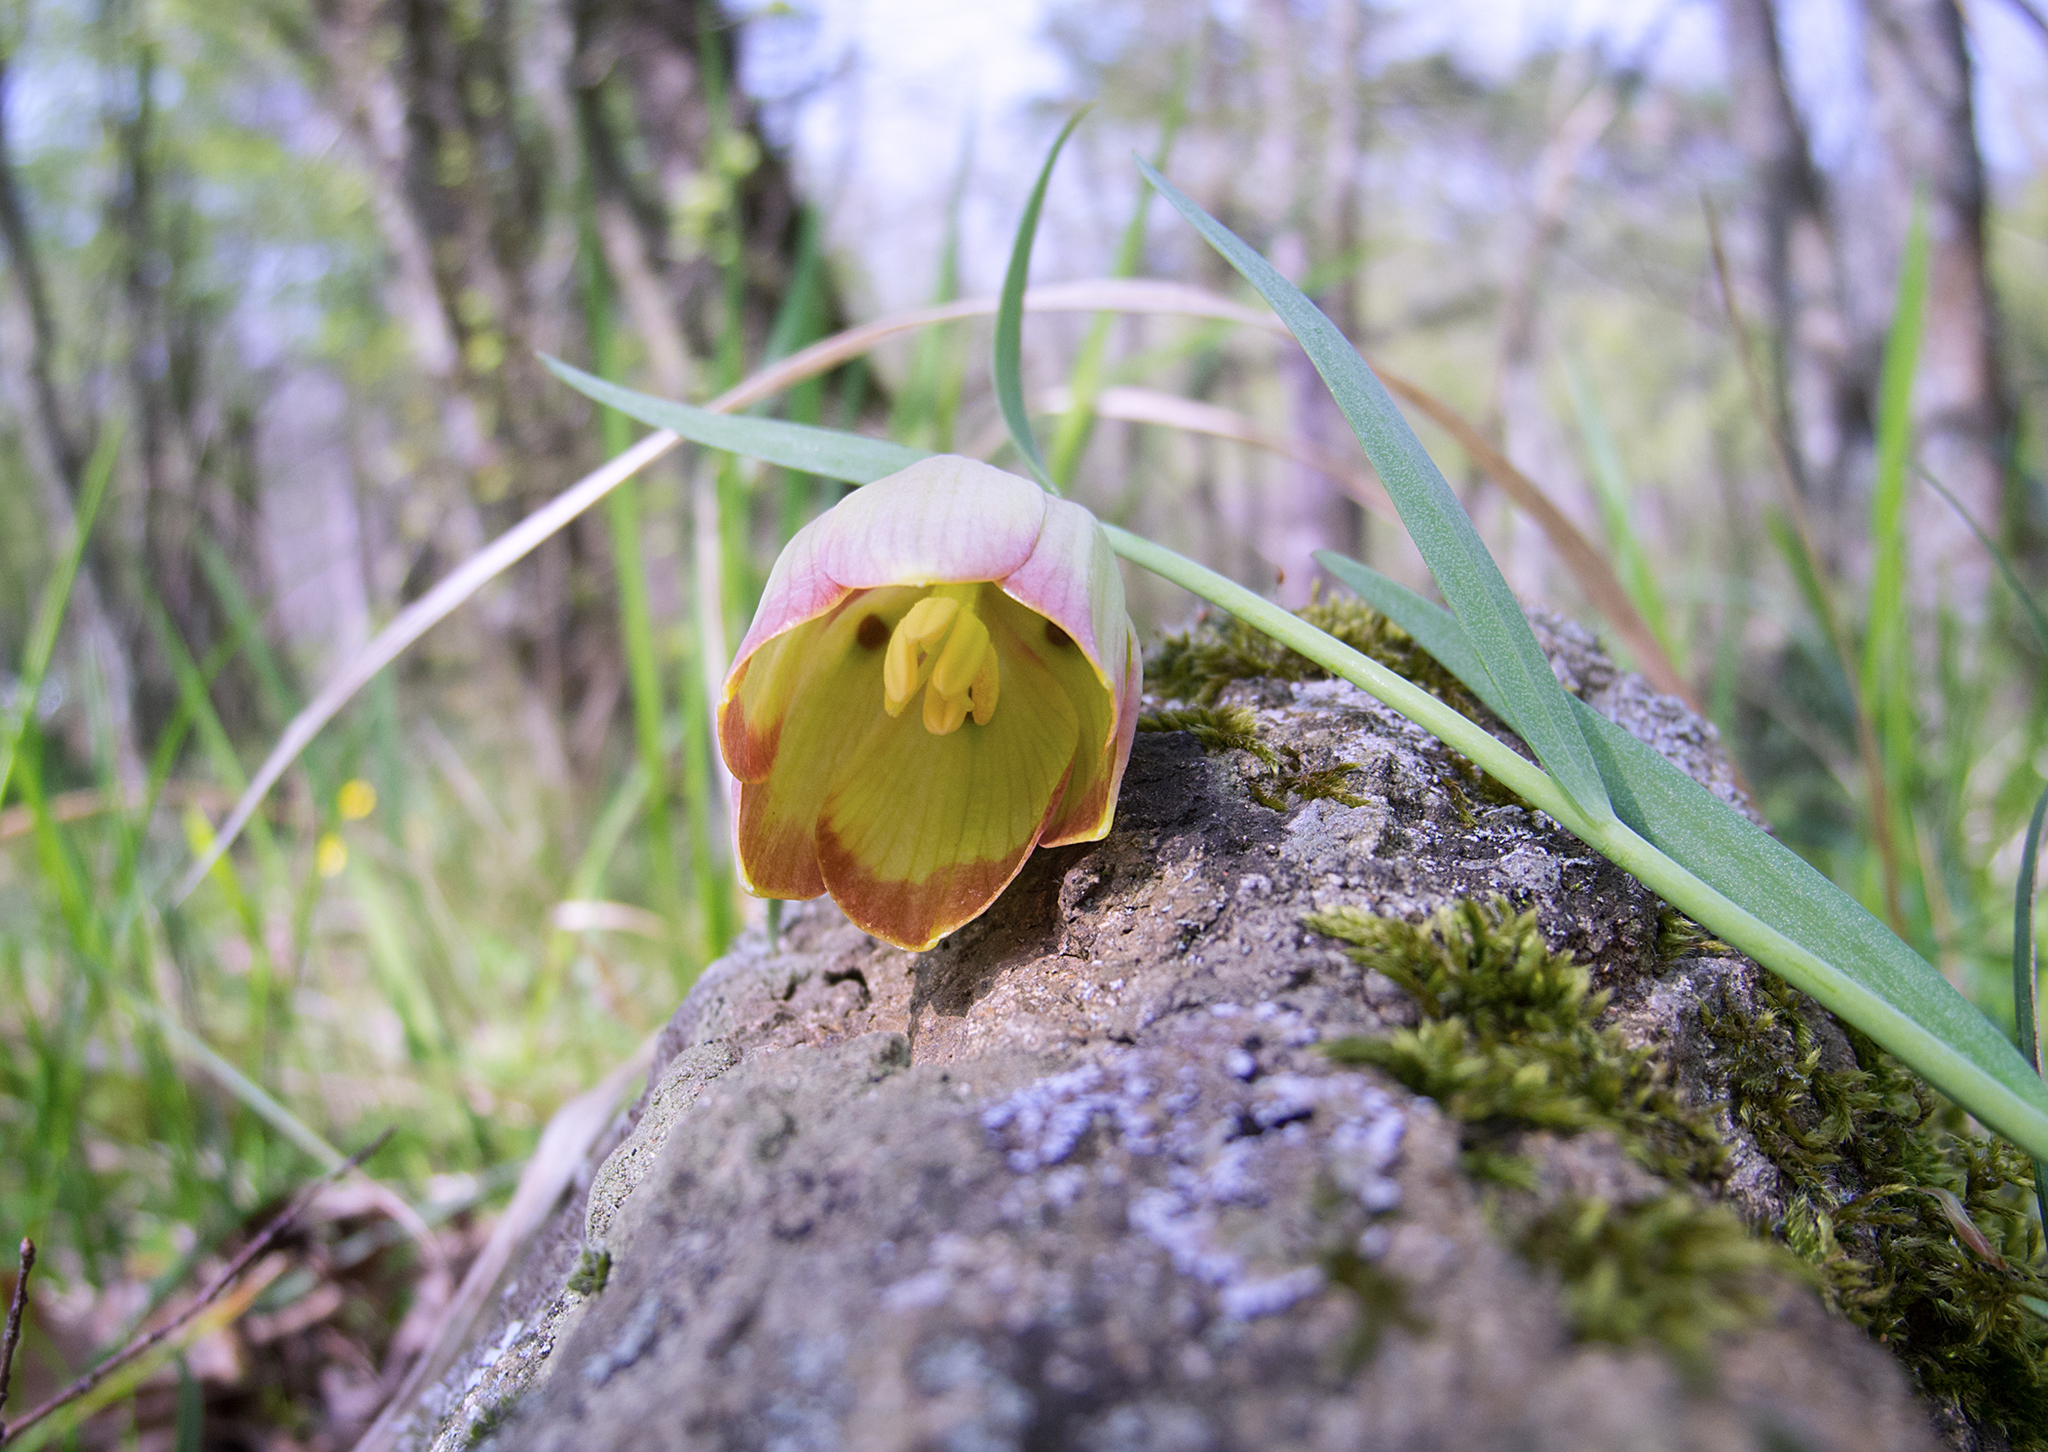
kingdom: Plantae
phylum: Tracheophyta
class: Liliopsida
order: Liliales
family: Liliaceae
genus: Fritillaria
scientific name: Fritillaria pontica
